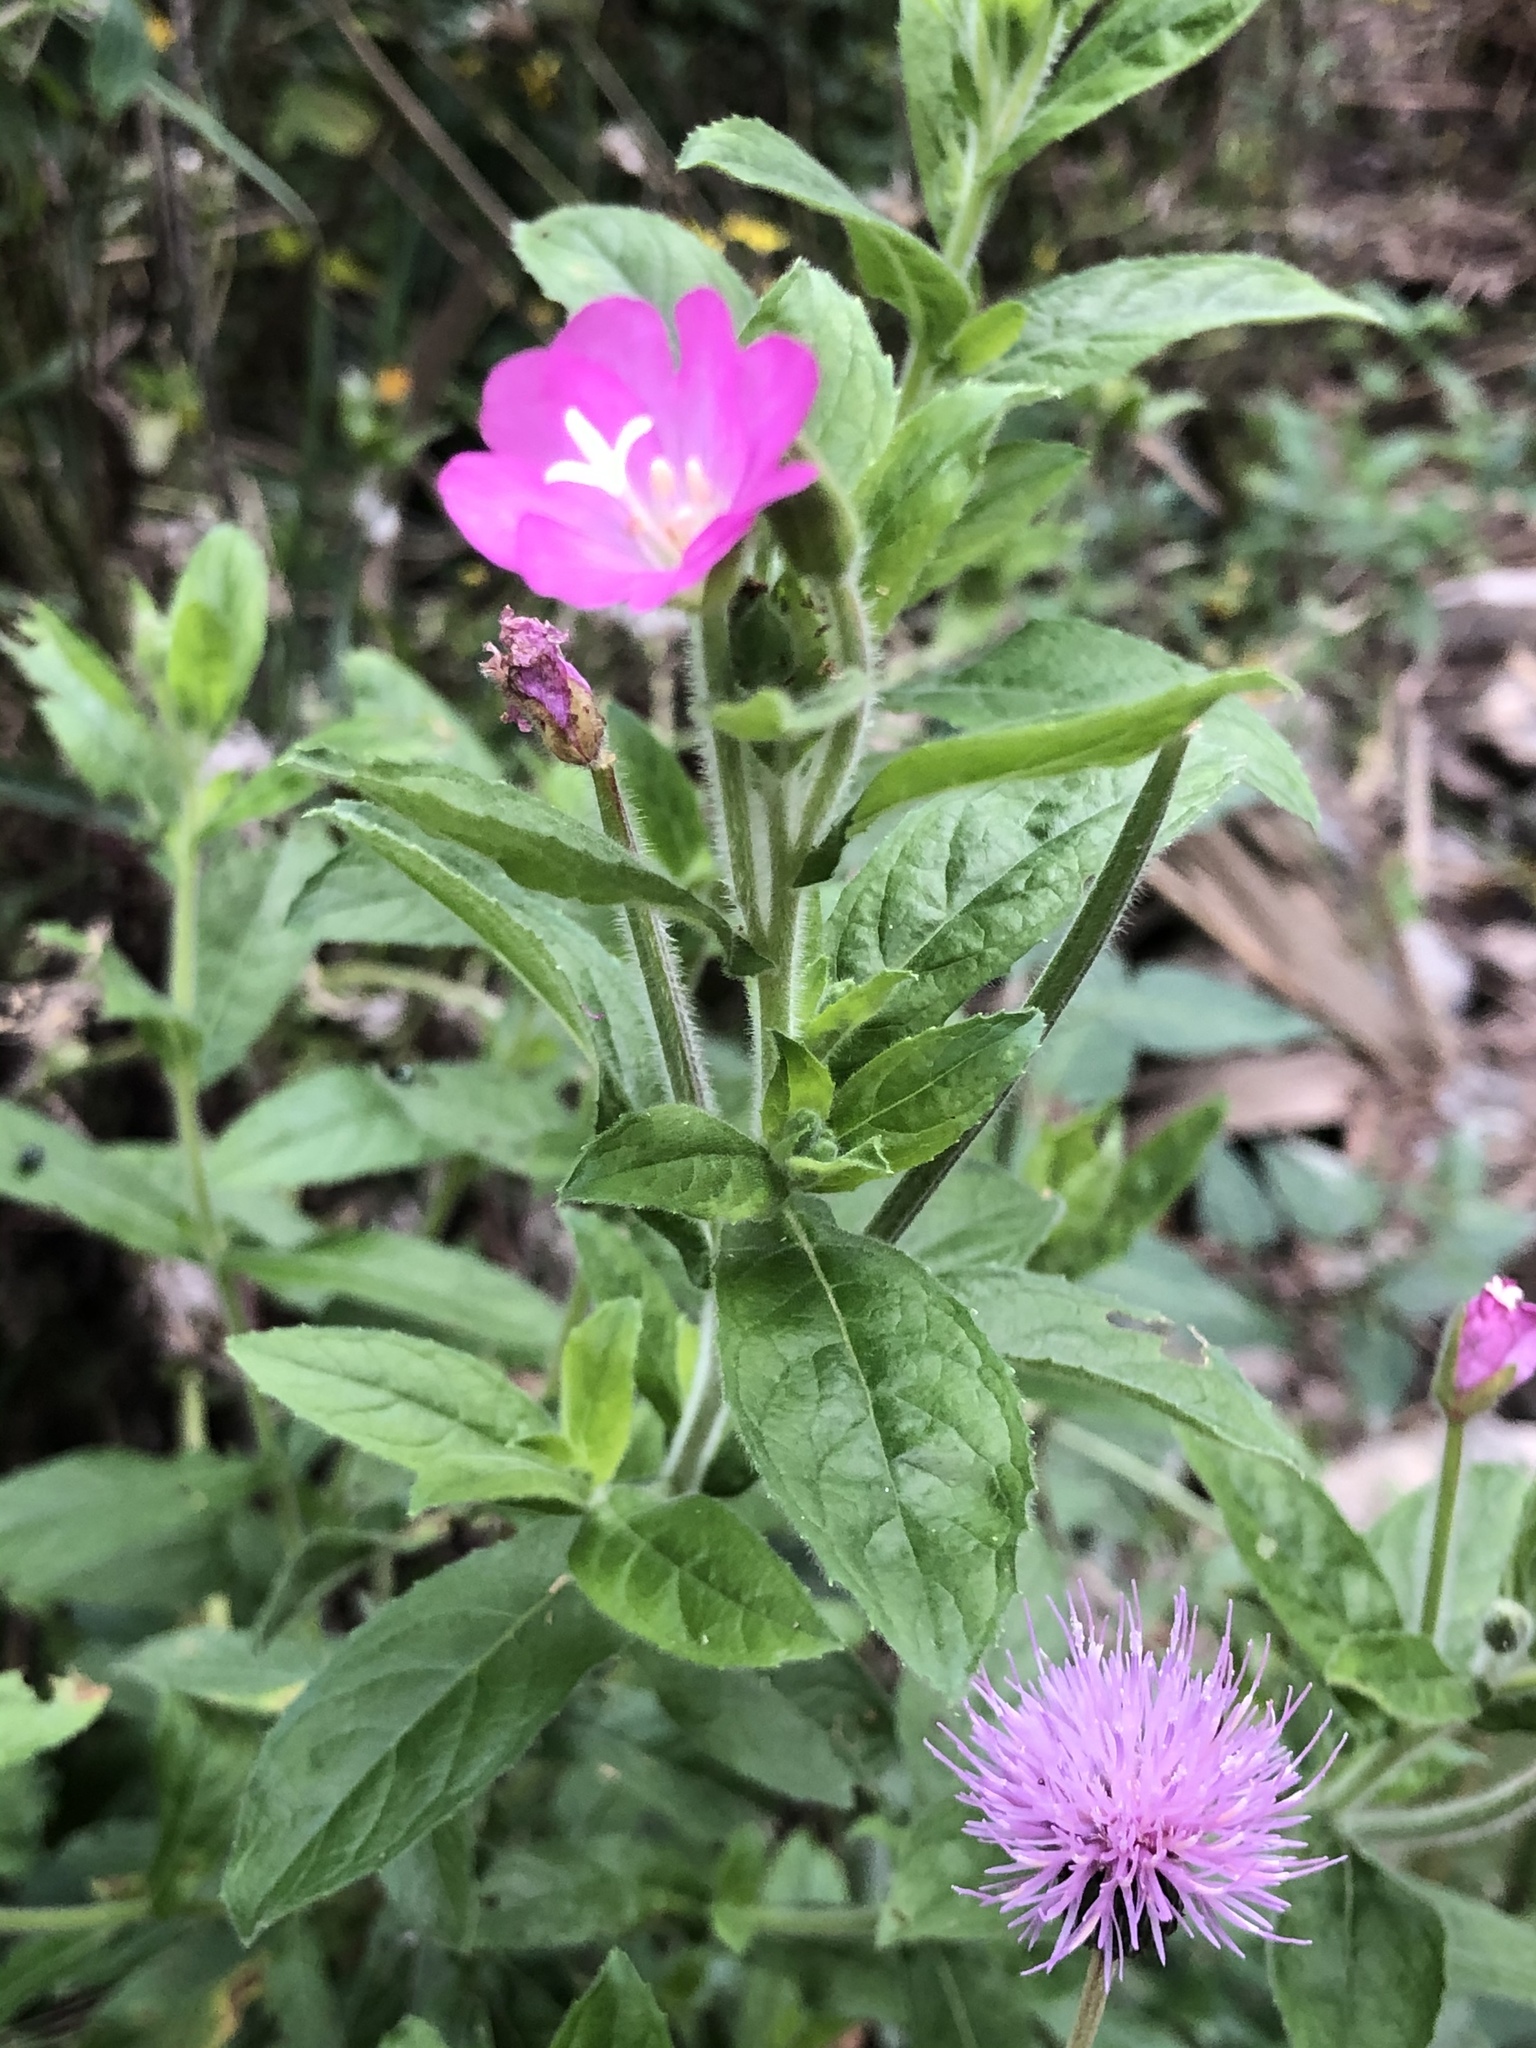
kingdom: Plantae
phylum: Tracheophyta
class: Magnoliopsida
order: Myrtales
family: Onagraceae
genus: Epilobium
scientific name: Epilobium hirsutum
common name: Great willowherb
